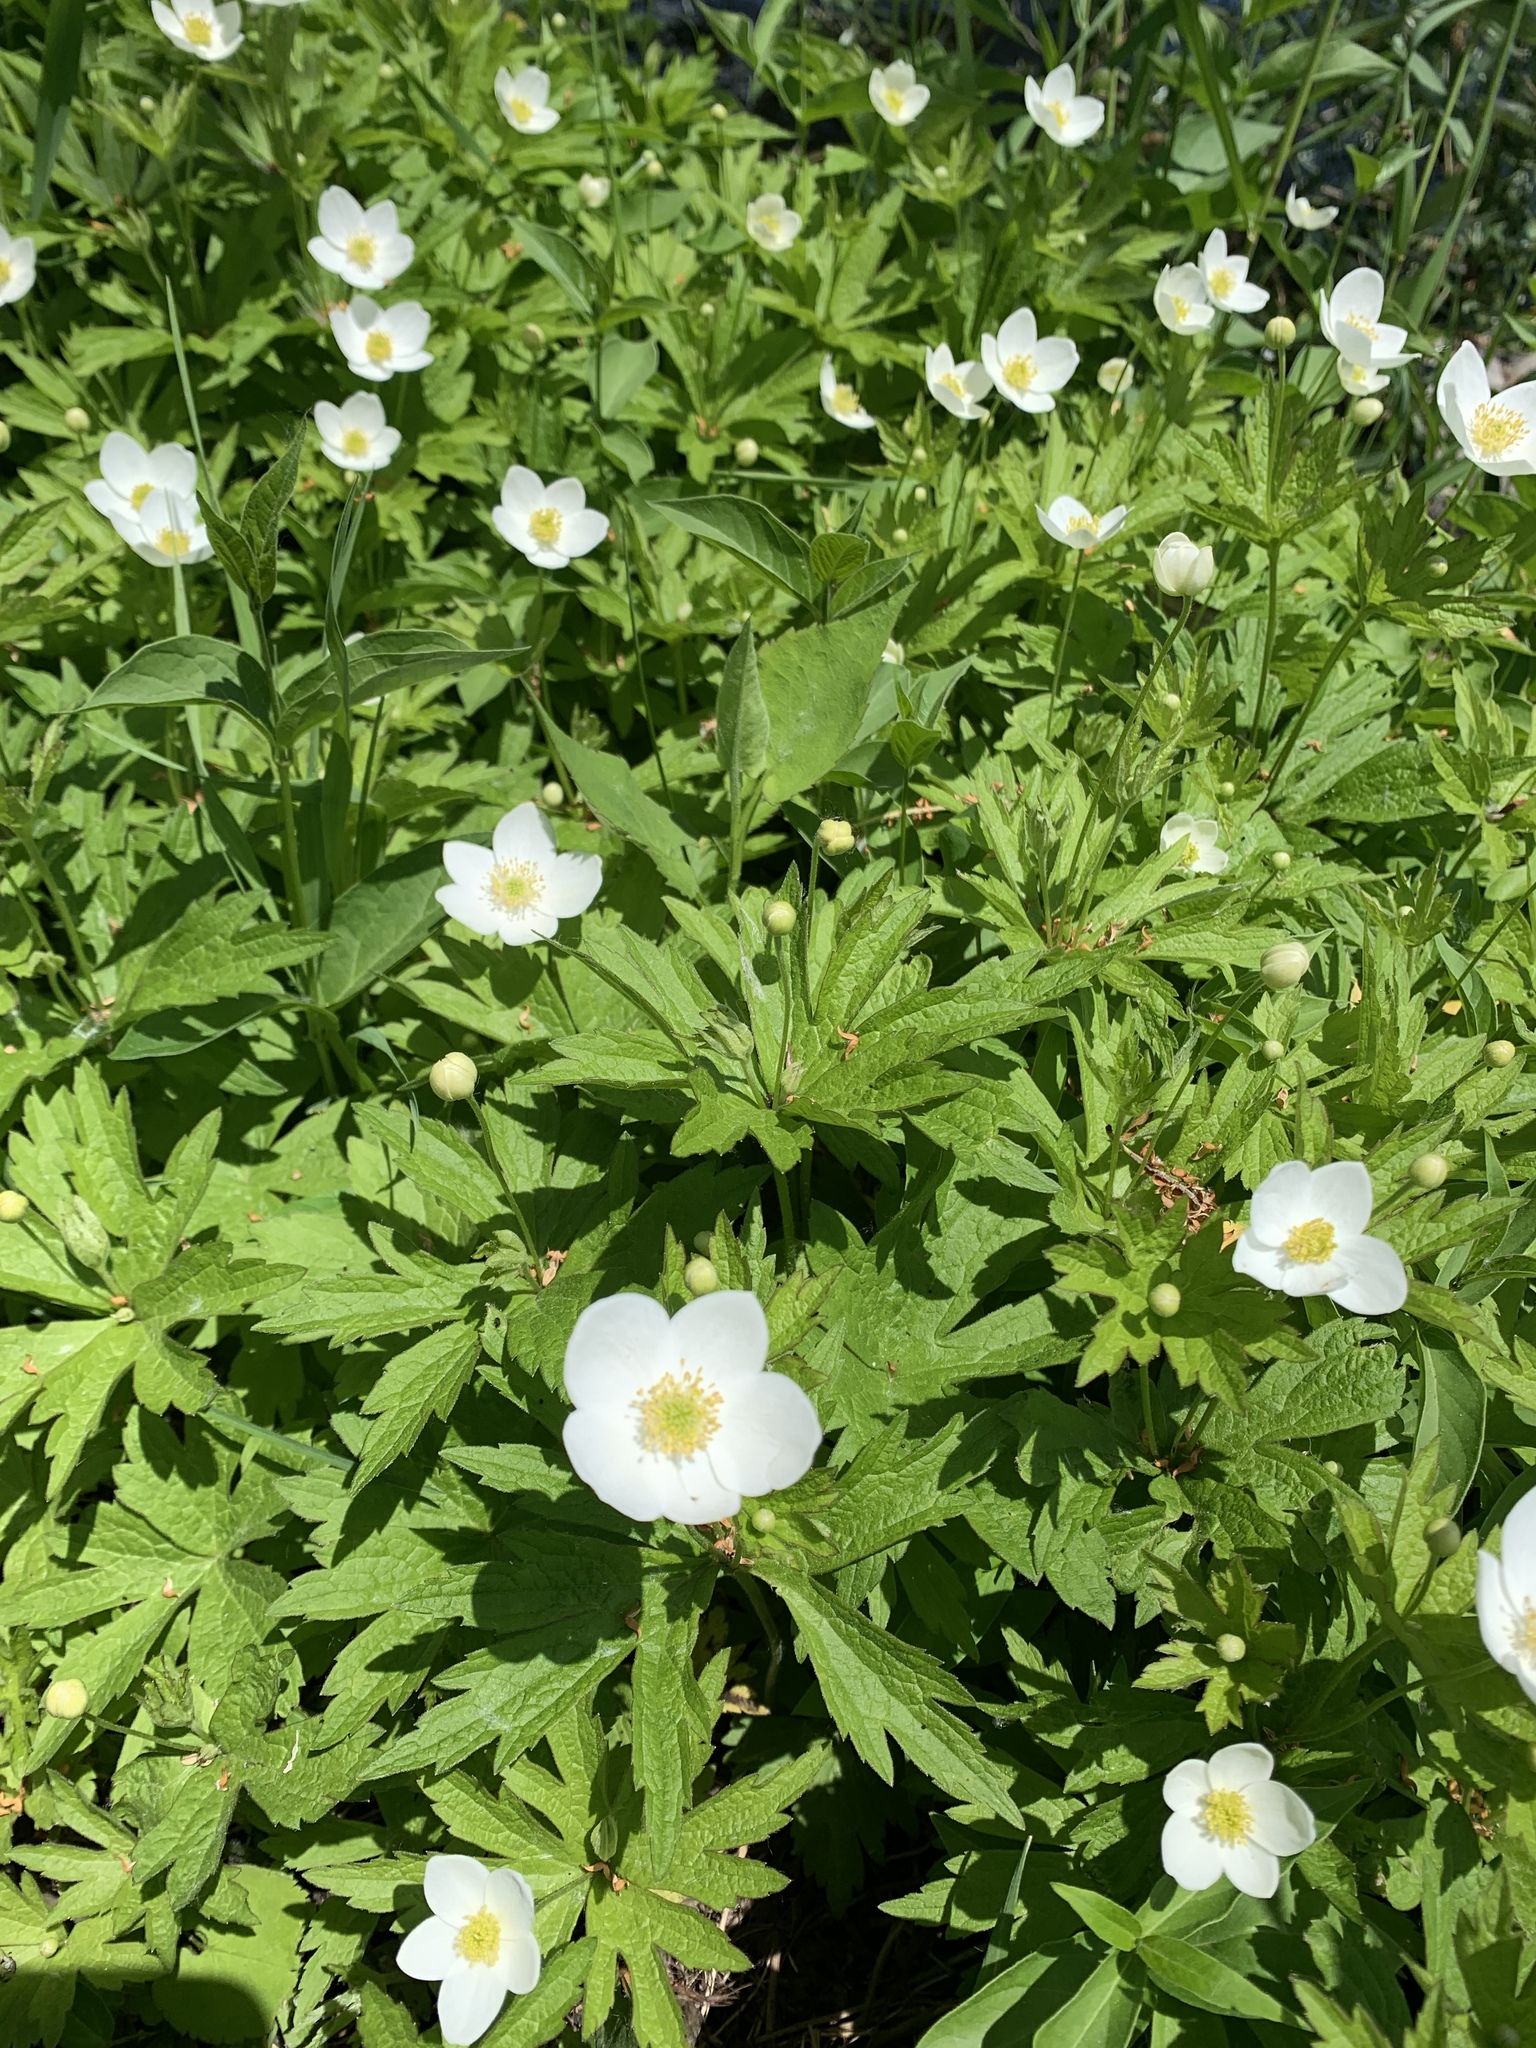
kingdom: Plantae
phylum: Tracheophyta
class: Magnoliopsida
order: Ranunculales
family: Ranunculaceae
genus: Anemonastrum
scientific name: Anemonastrum canadense
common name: Canada anemone
